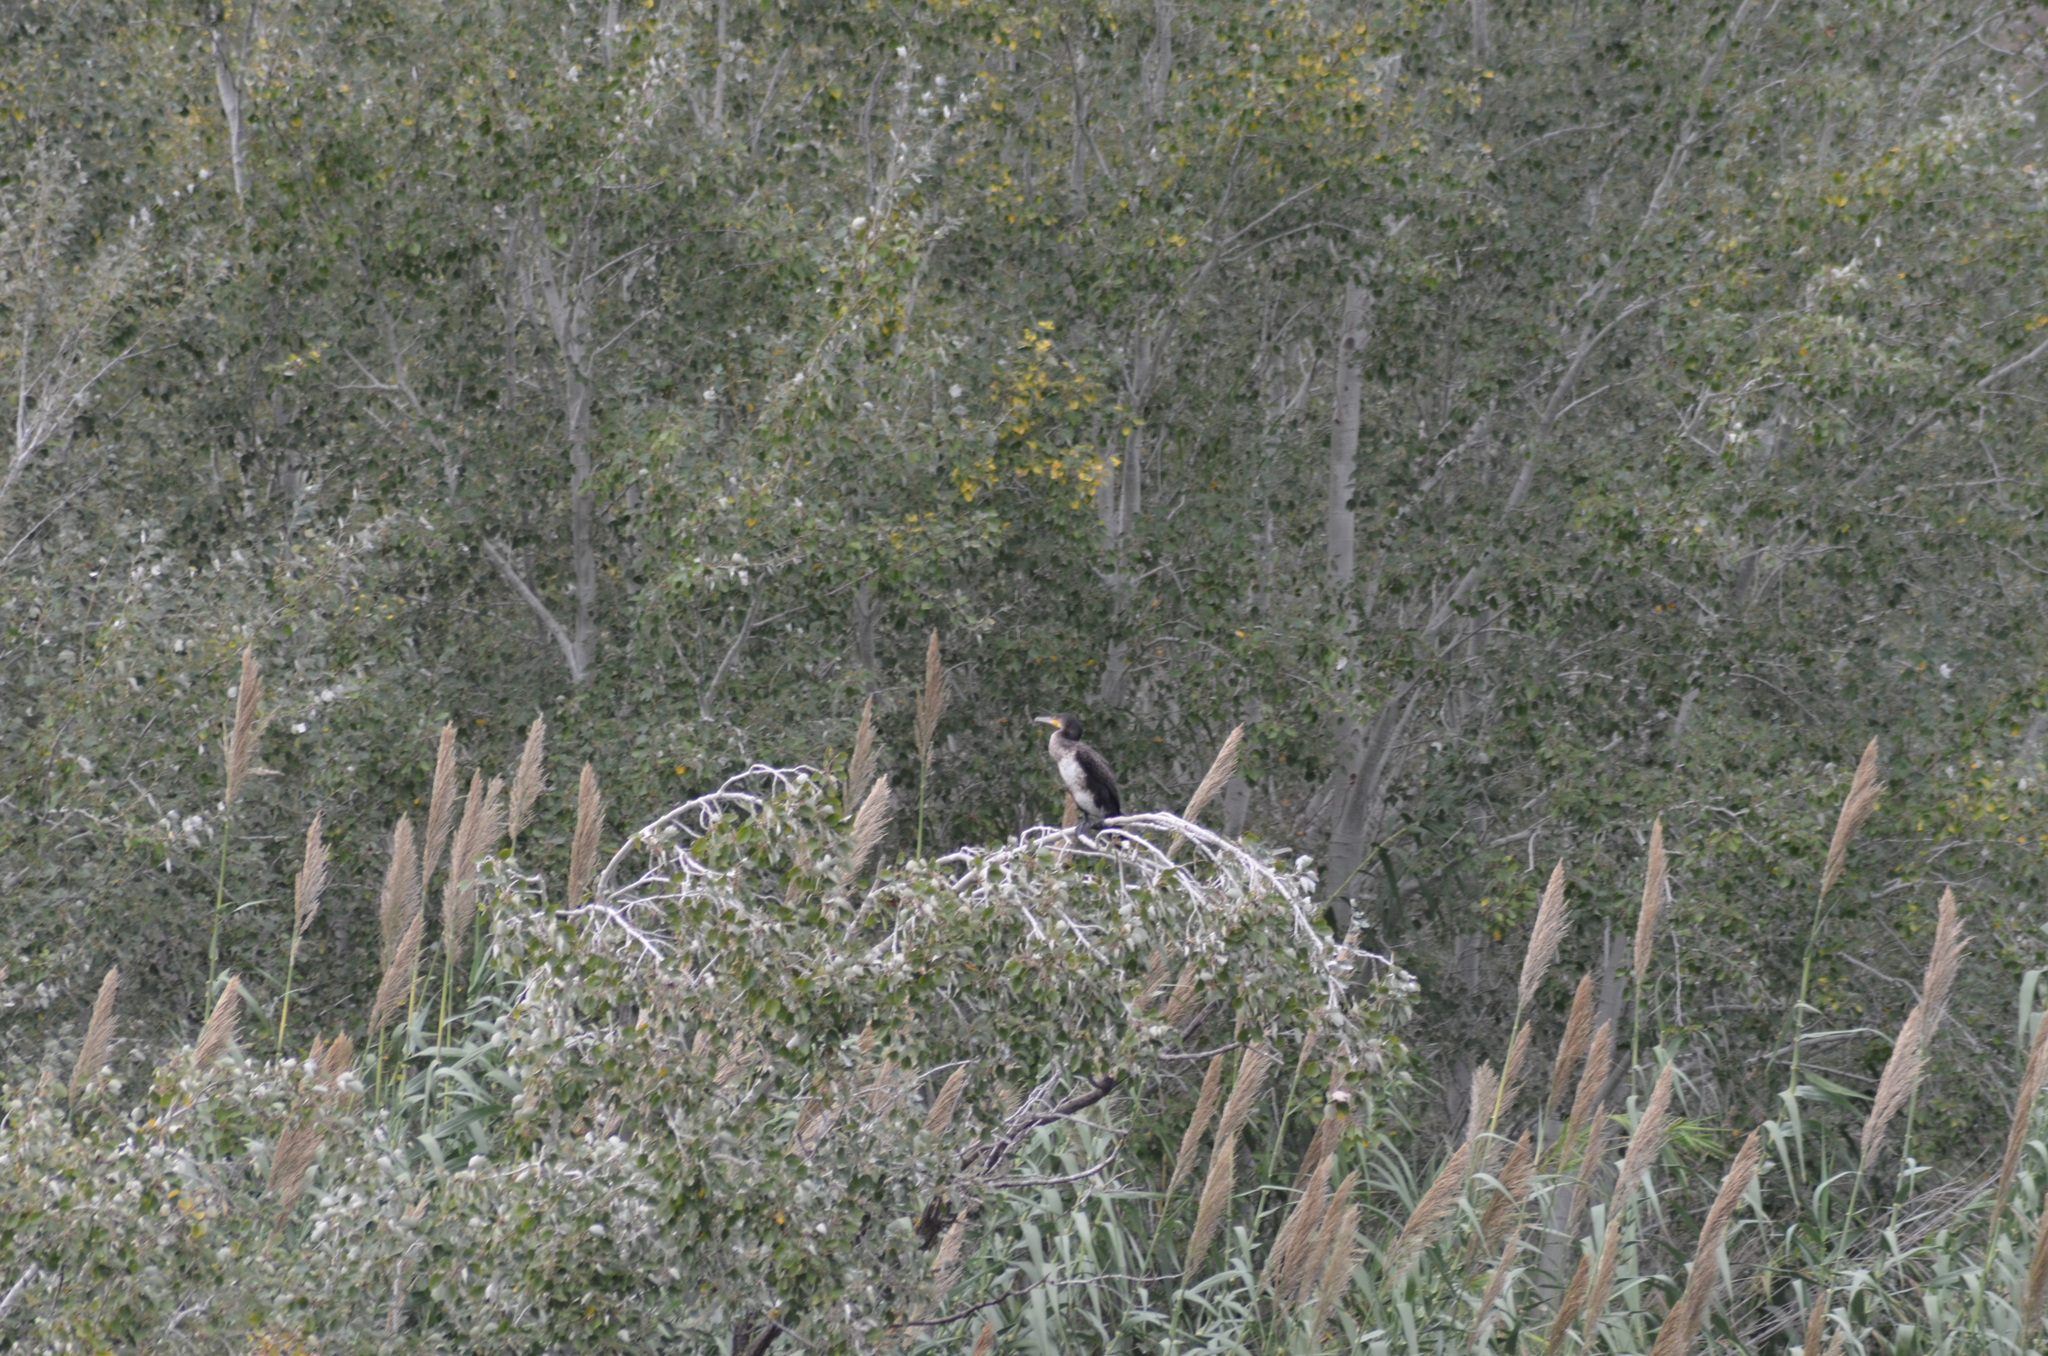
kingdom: Animalia
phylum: Chordata
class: Aves
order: Suliformes
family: Phalacrocoracidae
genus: Phalacrocorax
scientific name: Phalacrocorax carbo
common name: Great cormorant
